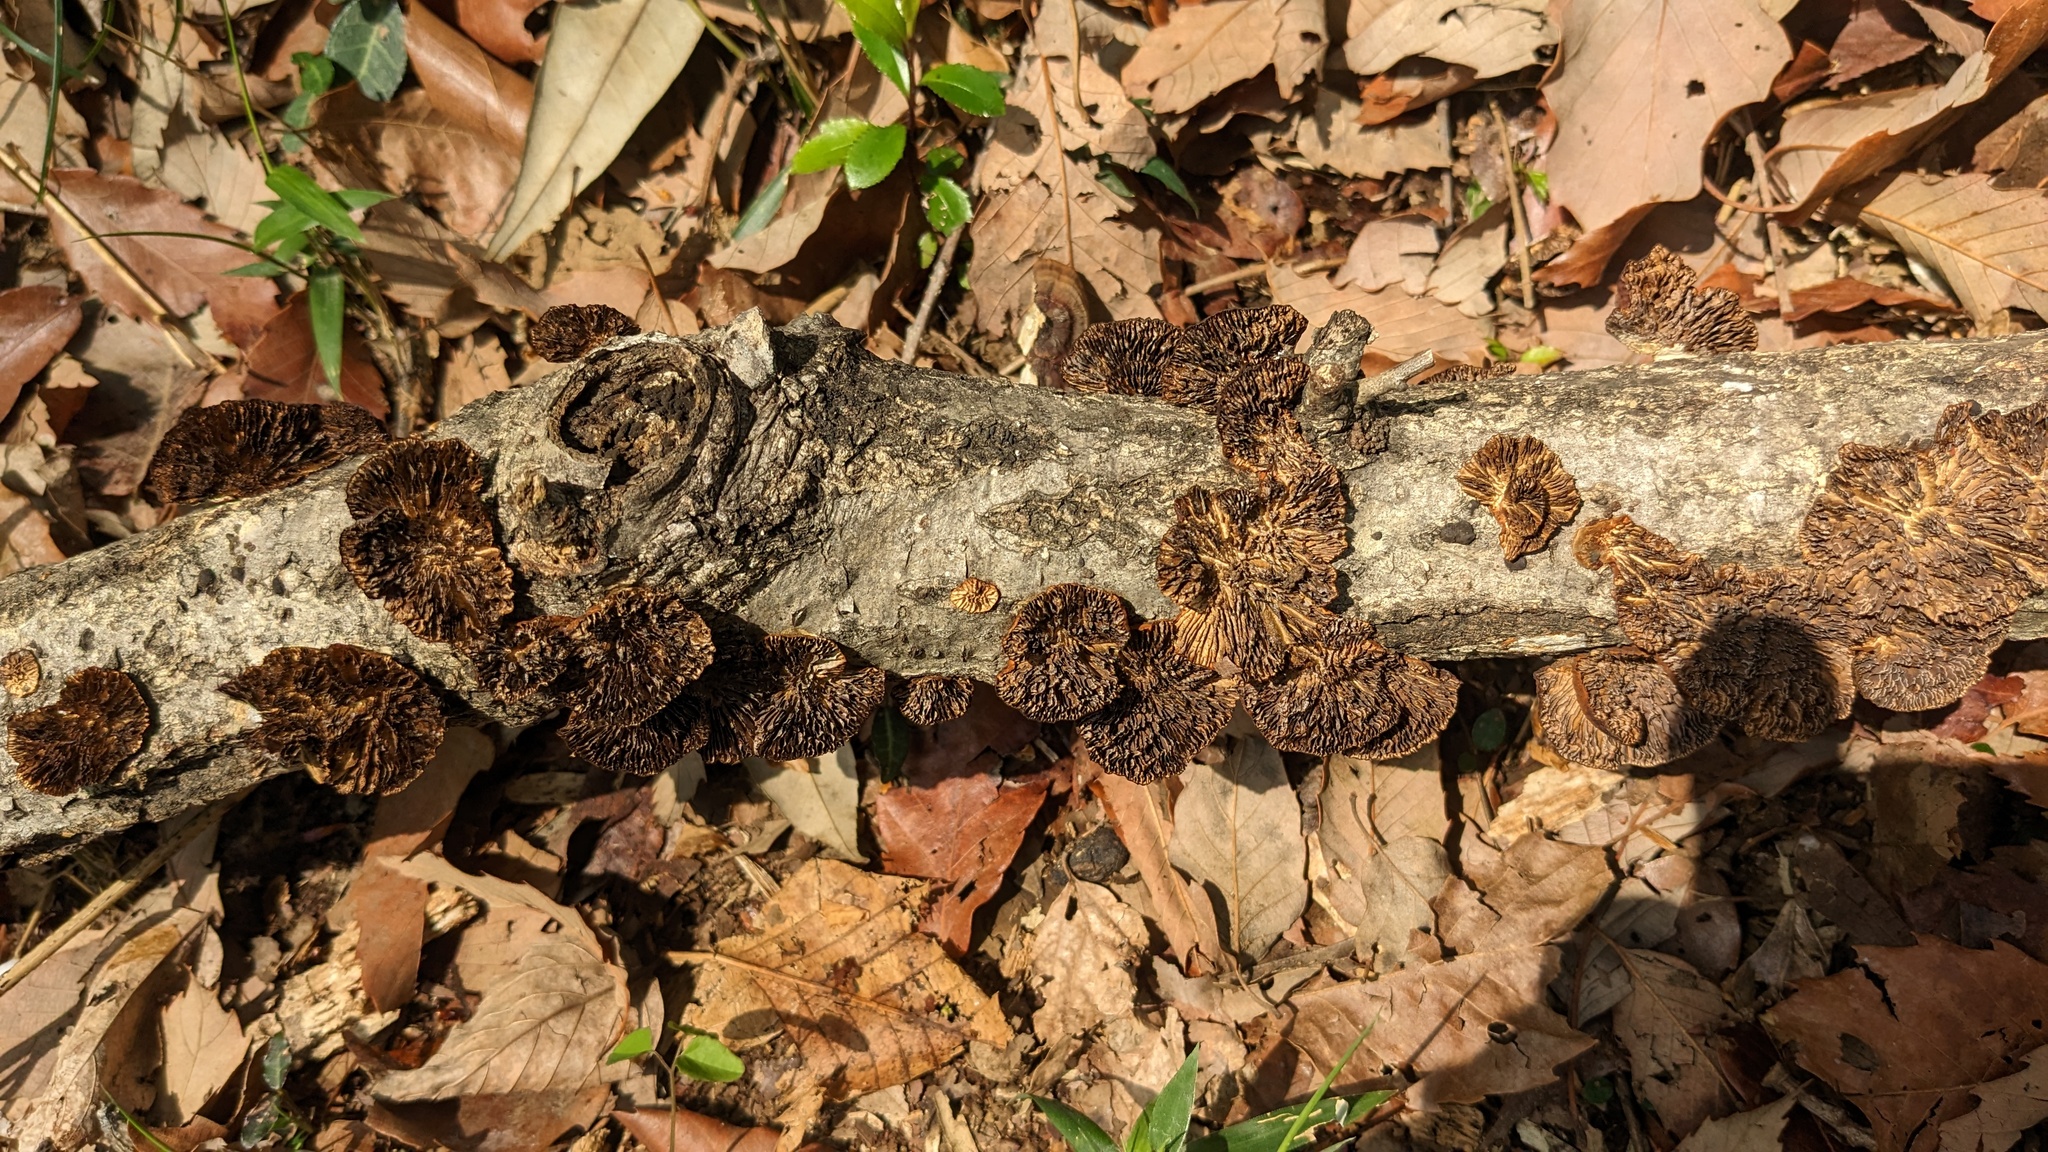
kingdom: Fungi
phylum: Basidiomycota
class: Agaricomycetes
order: Polyporales
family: Polyporaceae
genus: Daedaleopsis
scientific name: Daedaleopsis tricolor
